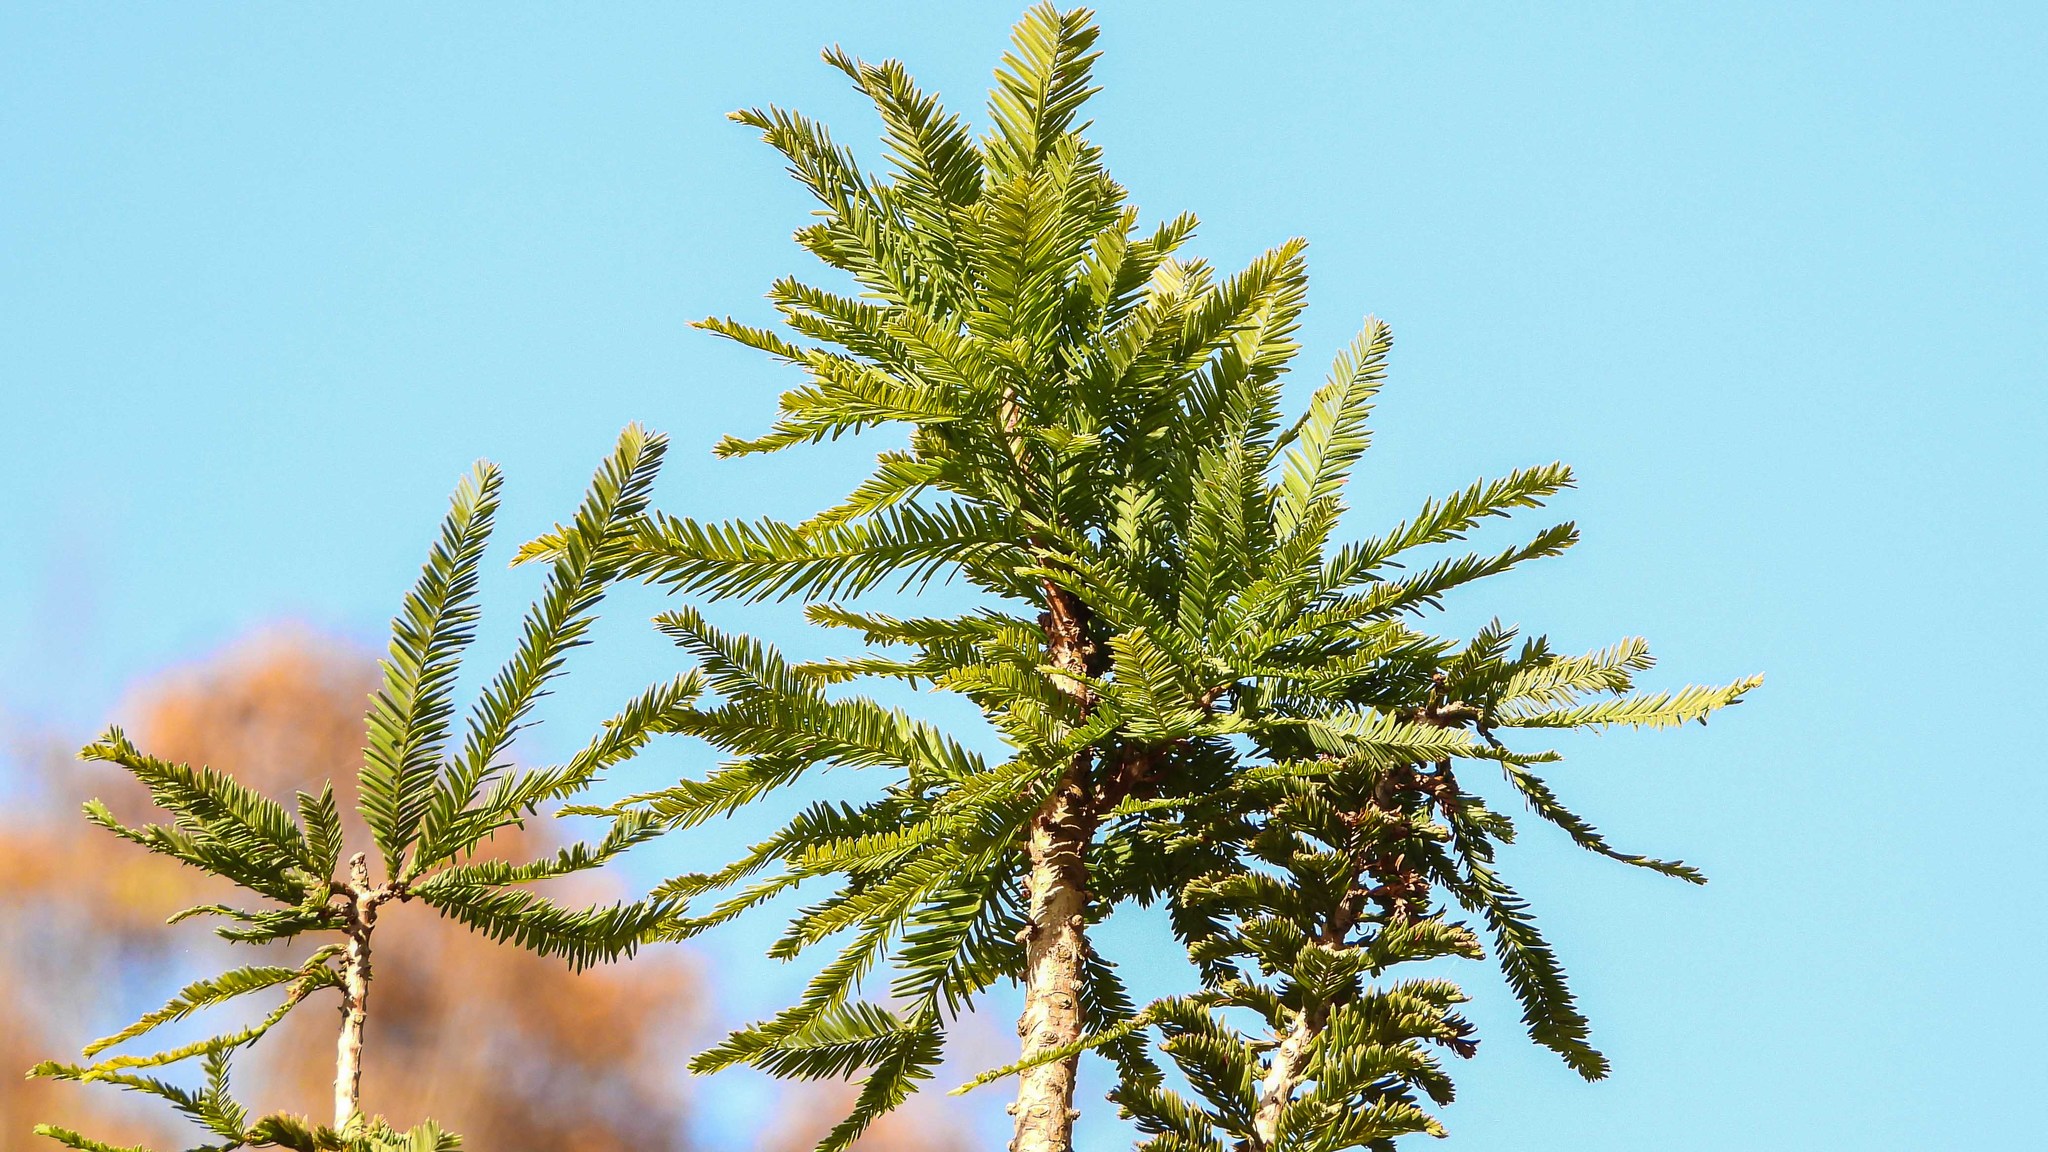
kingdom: Plantae
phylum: Tracheophyta
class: Pinopsida
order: Pinales
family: Cupressaceae
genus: Taxodium
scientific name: Taxodium distichum
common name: Bald cypress
